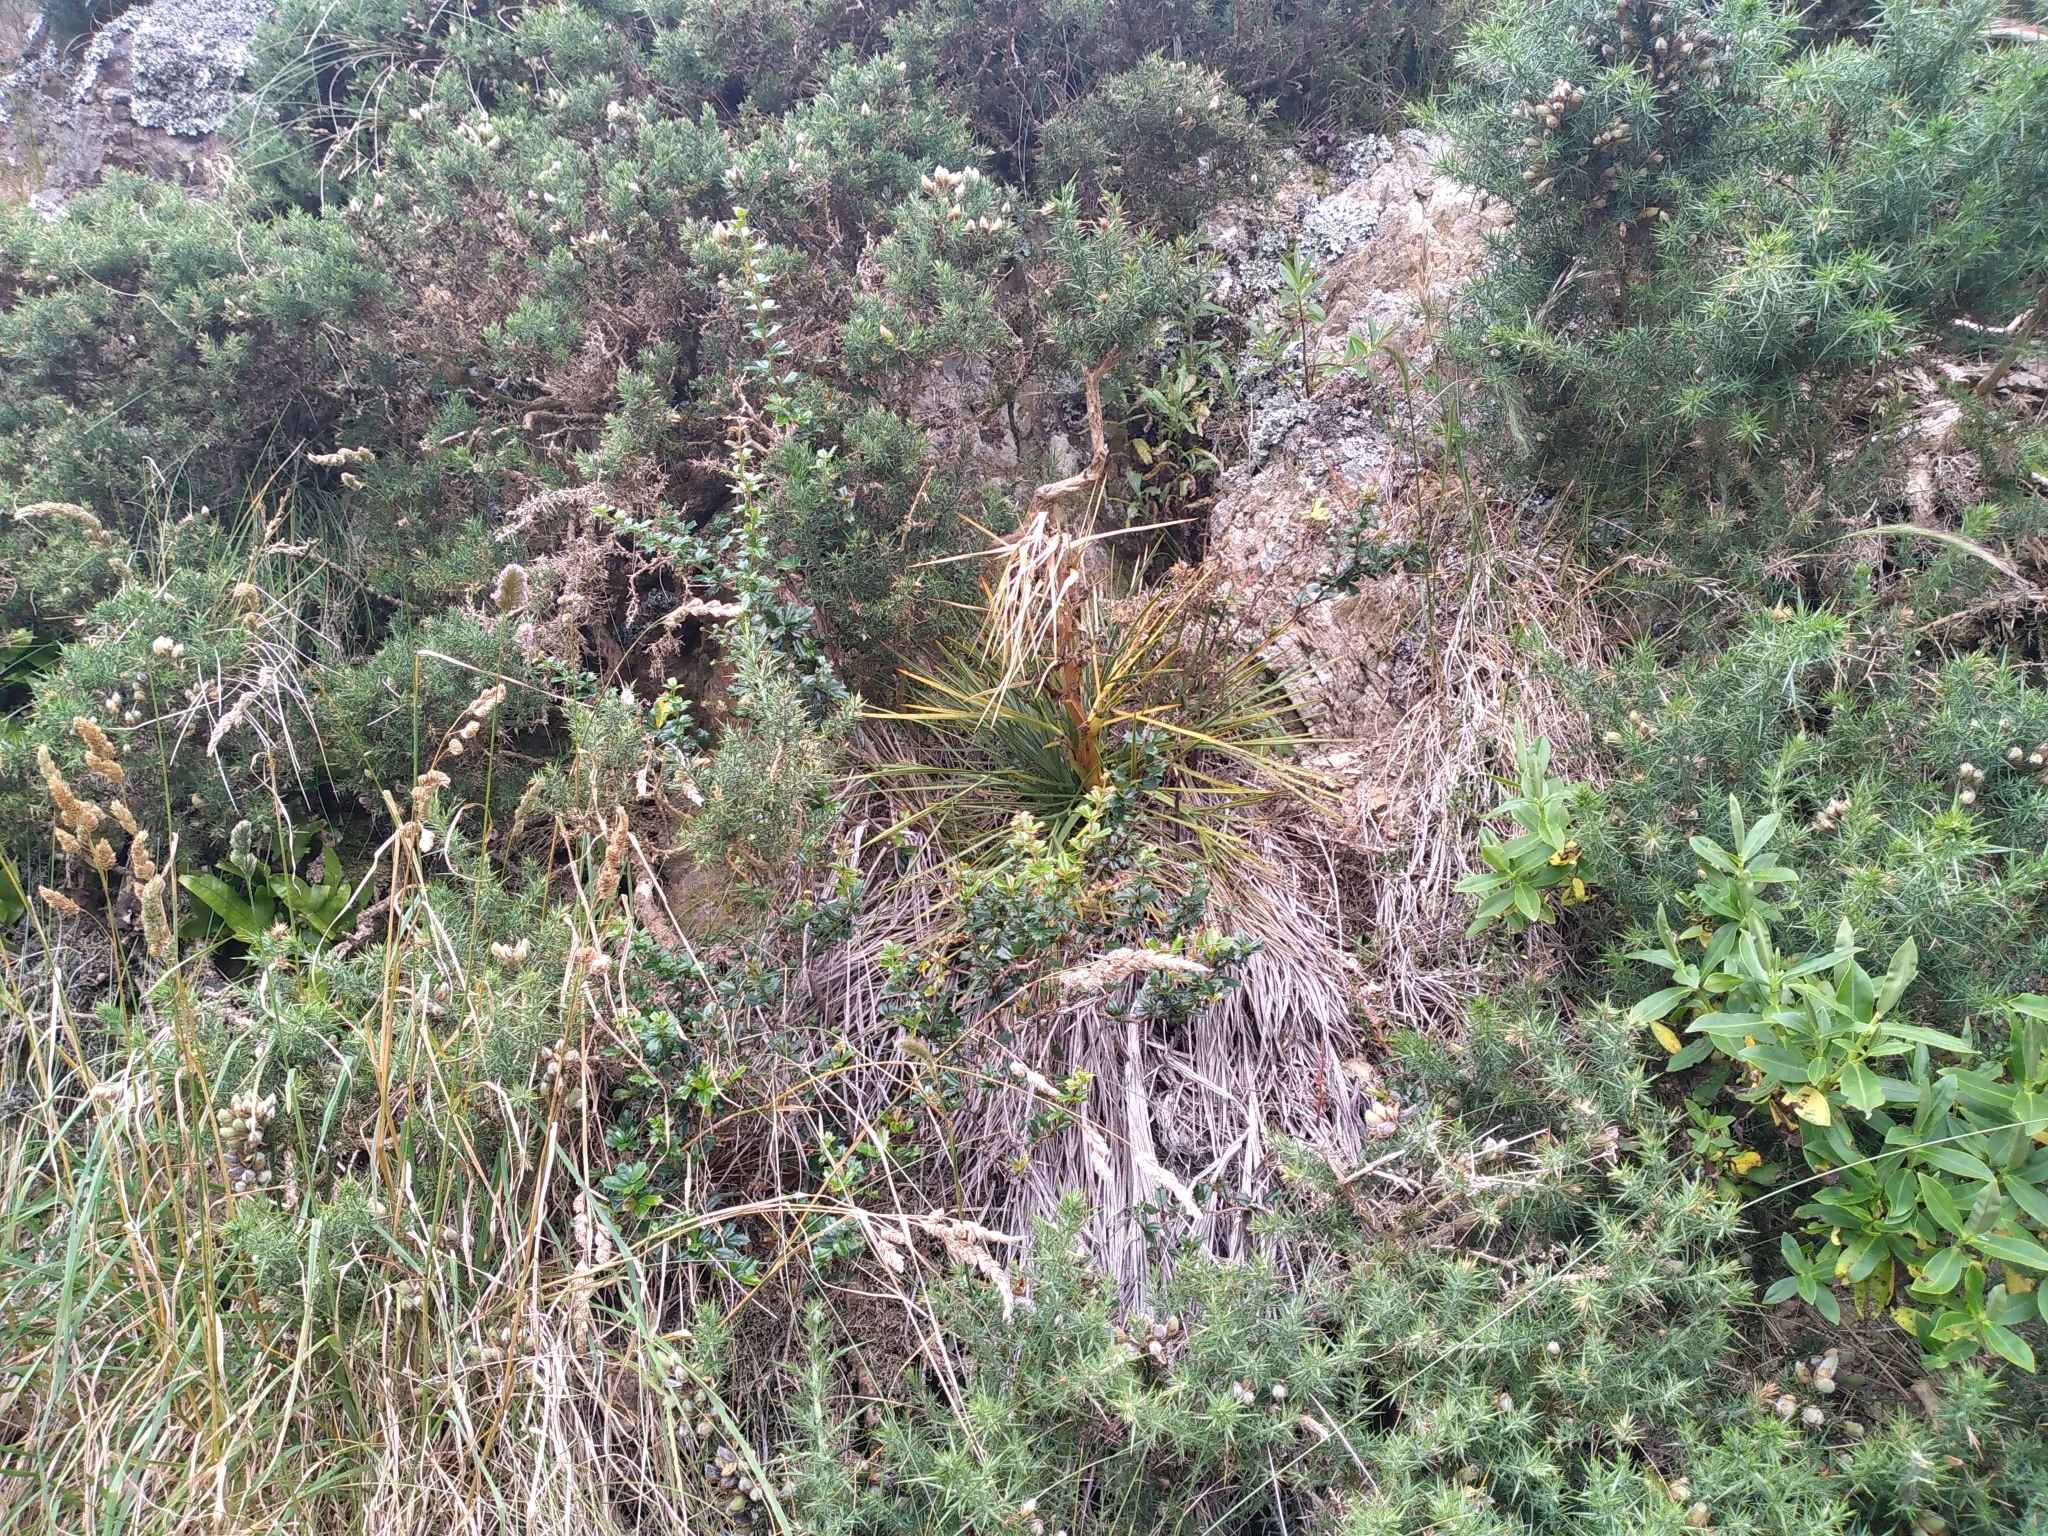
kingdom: Plantae
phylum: Tracheophyta
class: Magnoliopsida
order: Apiales
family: Apiaceae
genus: Aciphylla
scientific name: Aciphylla squarrosa
